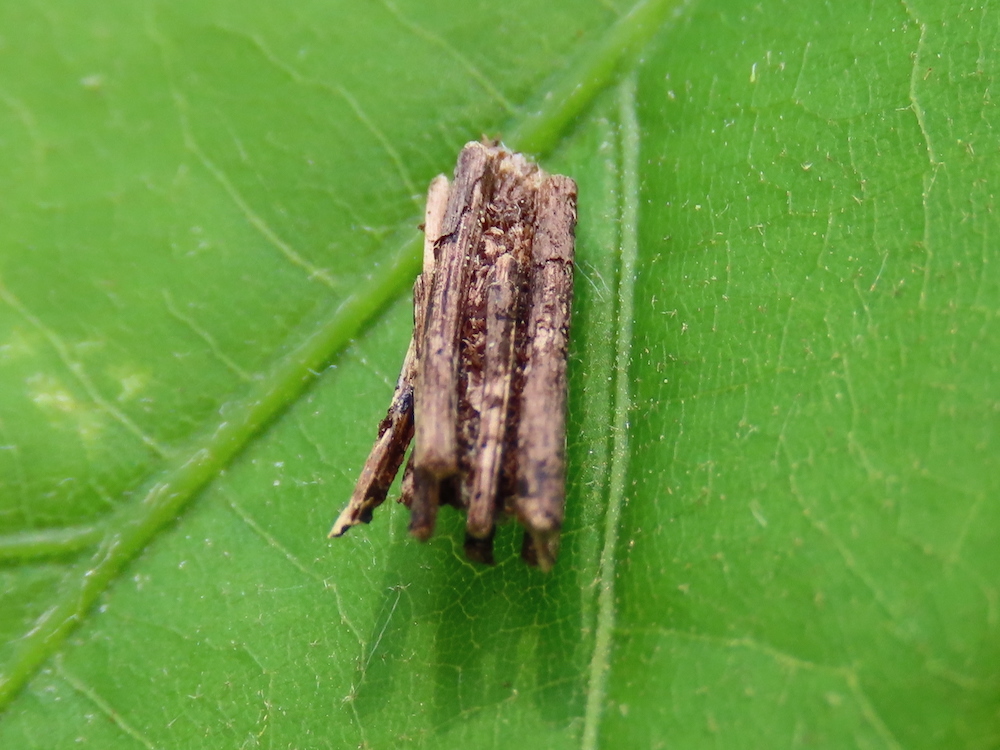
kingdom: Animalia
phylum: Arthropoda
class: Insecta
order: Lepidoptera
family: Psychidae
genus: Psyche
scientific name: Psyche casta
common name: Common sweep
